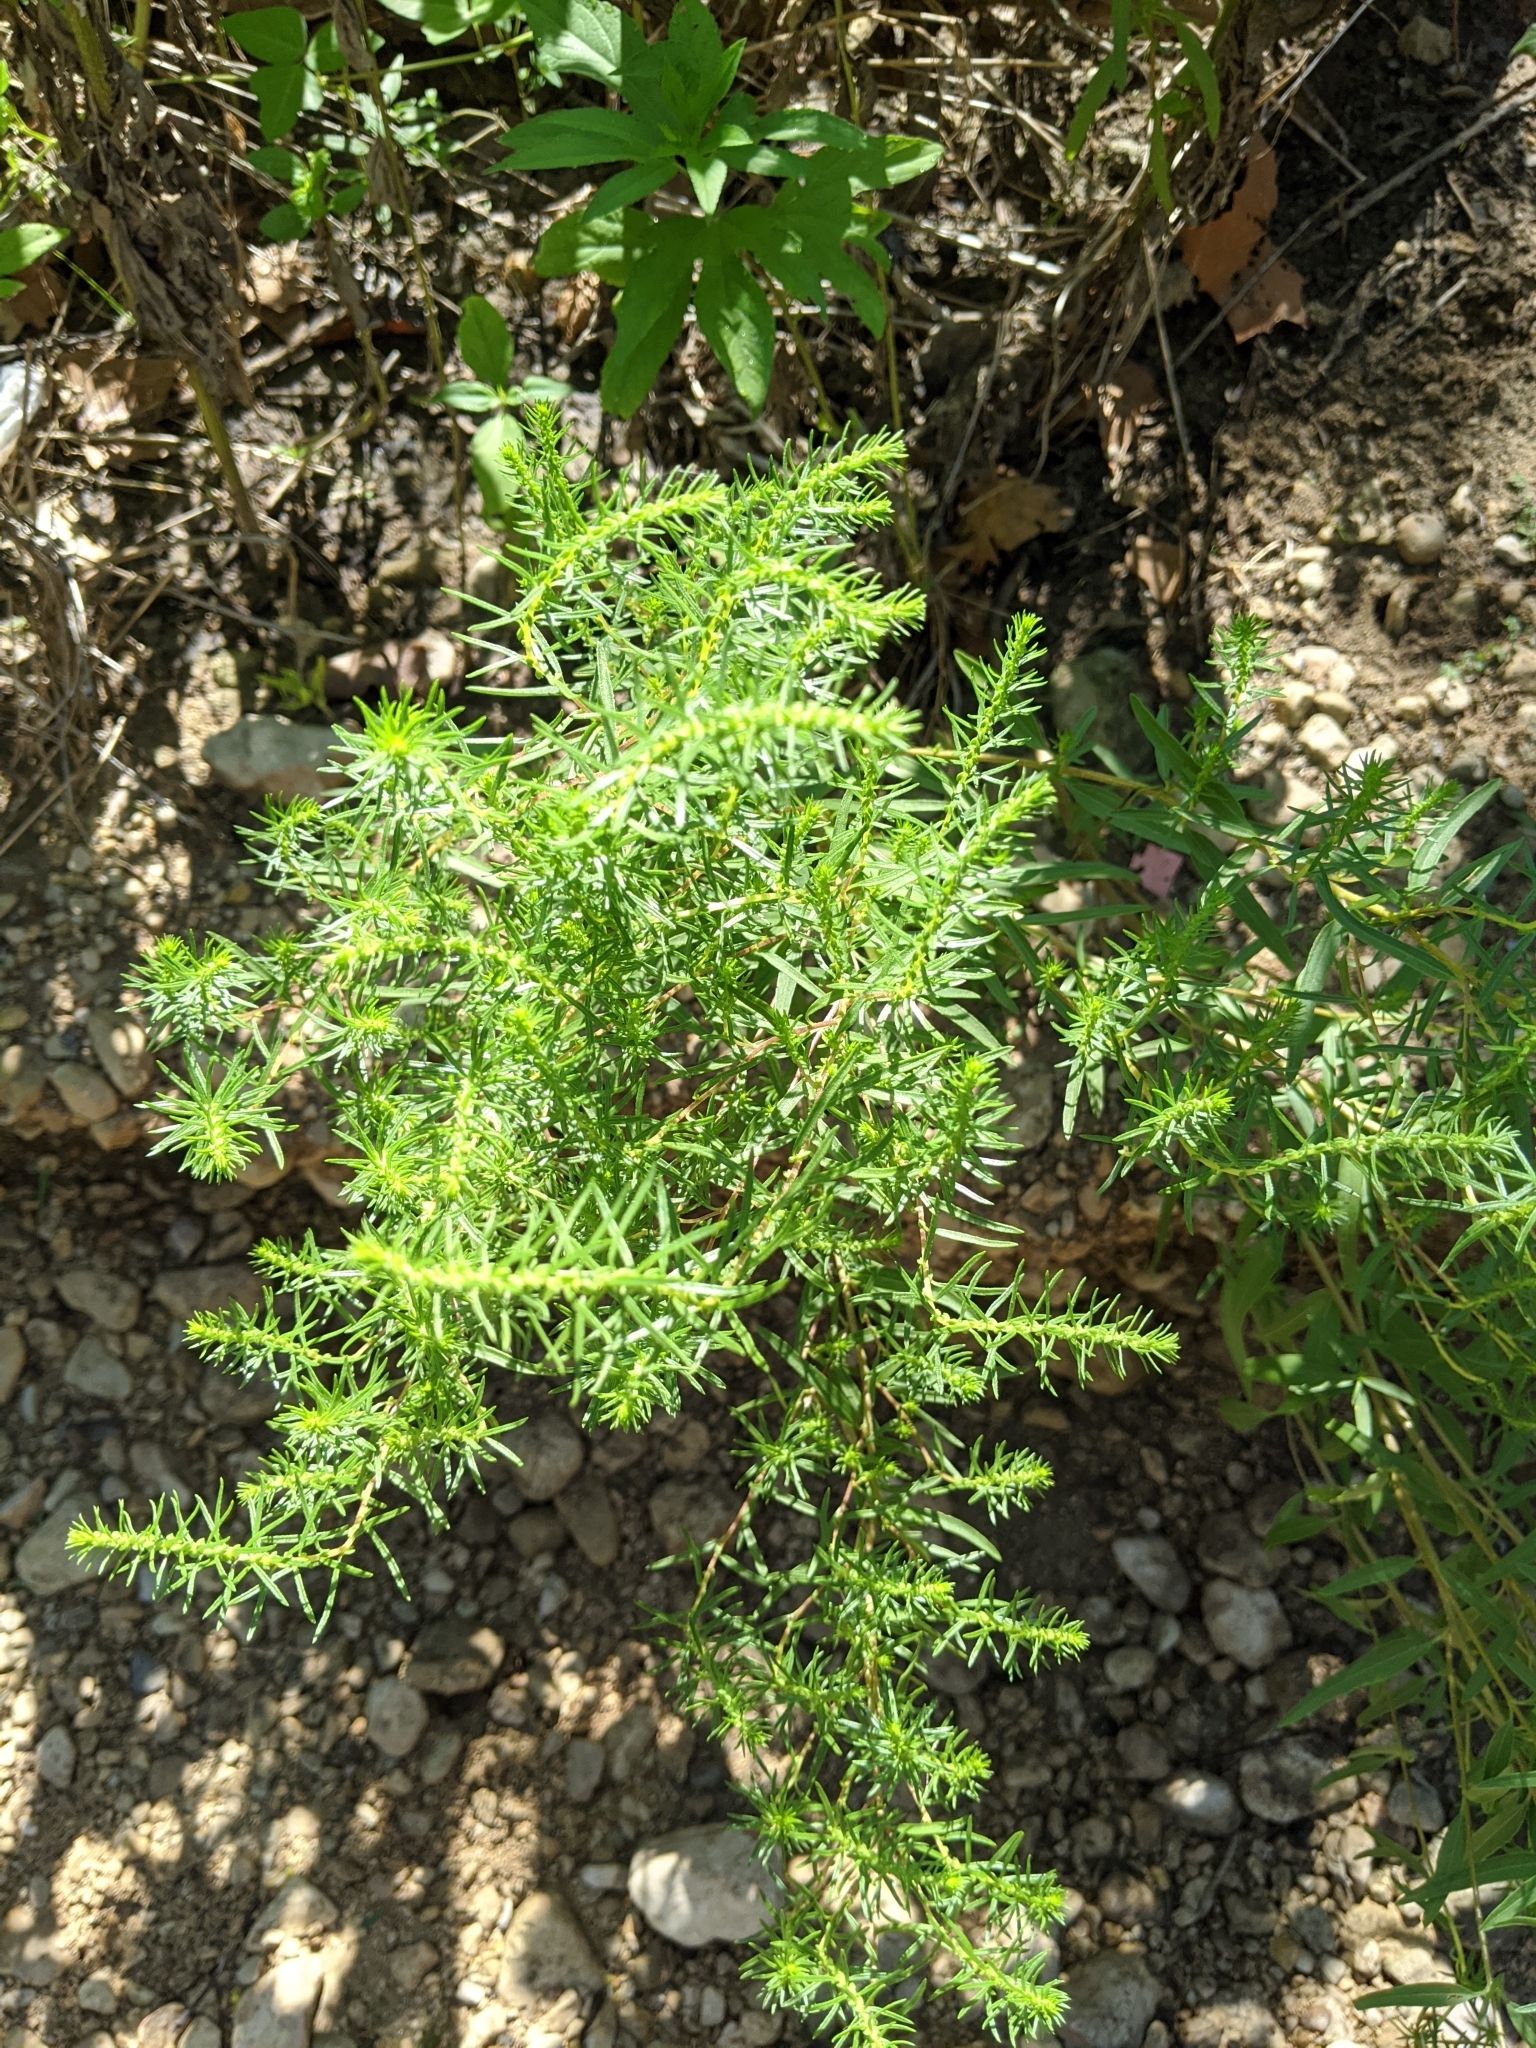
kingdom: Plantae
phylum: Tracheophyta
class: Magnoliopsida
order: Asterales
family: Asteraceae
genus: Iva
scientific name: Iva asperifolia
